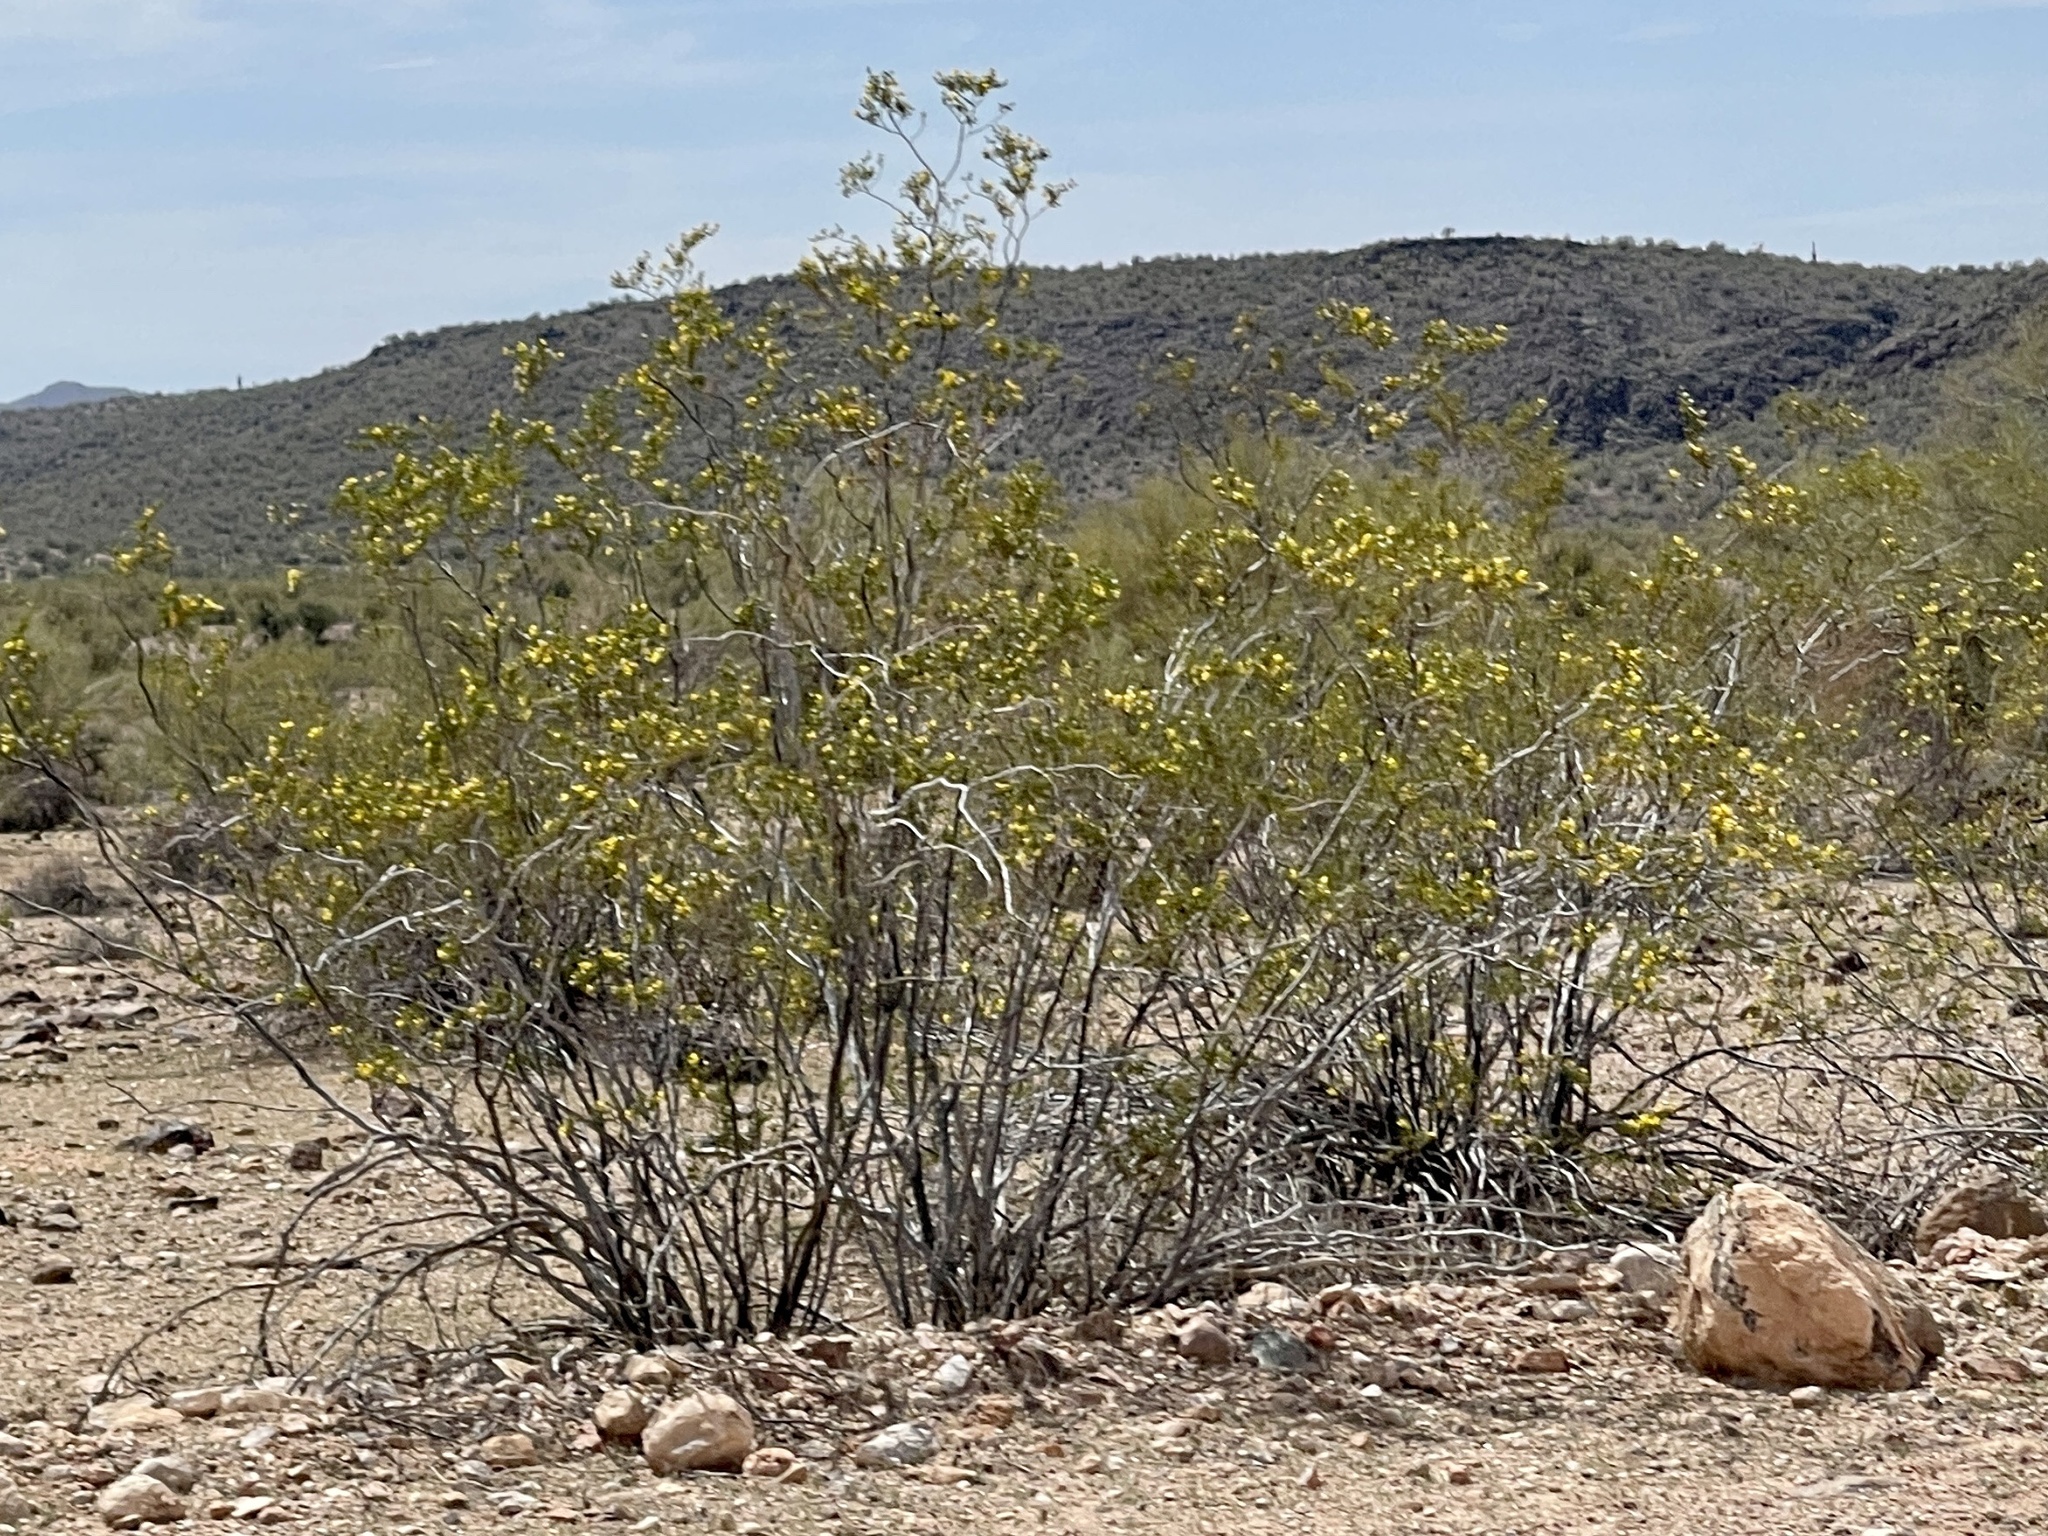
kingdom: Plantae
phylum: Tracheophyta
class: Magnoliopsida
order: Zygophyllales
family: Zygophyllaceae
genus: Larrea
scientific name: Larrea tridentata
